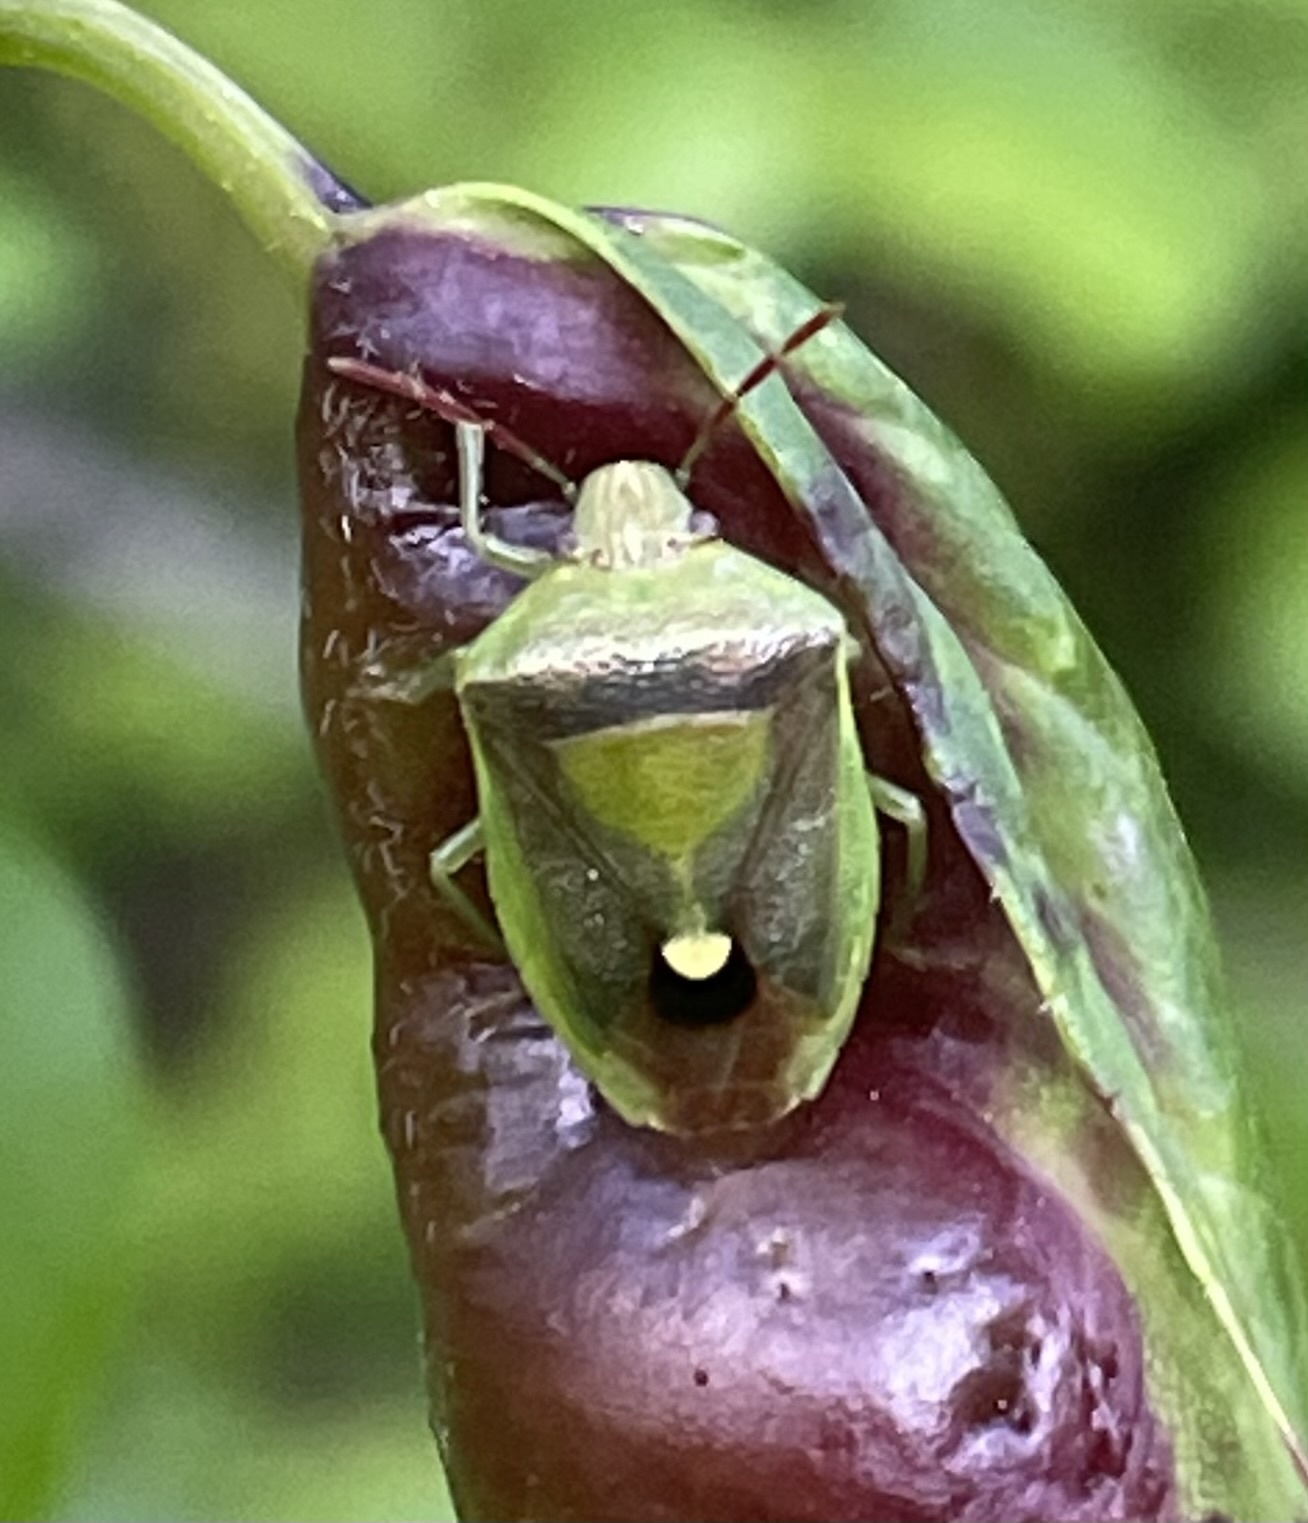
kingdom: Animalia
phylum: Arthropoda
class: Insecta
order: Hemiptera
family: Pentatomidae
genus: Banasa
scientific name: Banasa dimidiata
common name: Green burgundy stink bug
